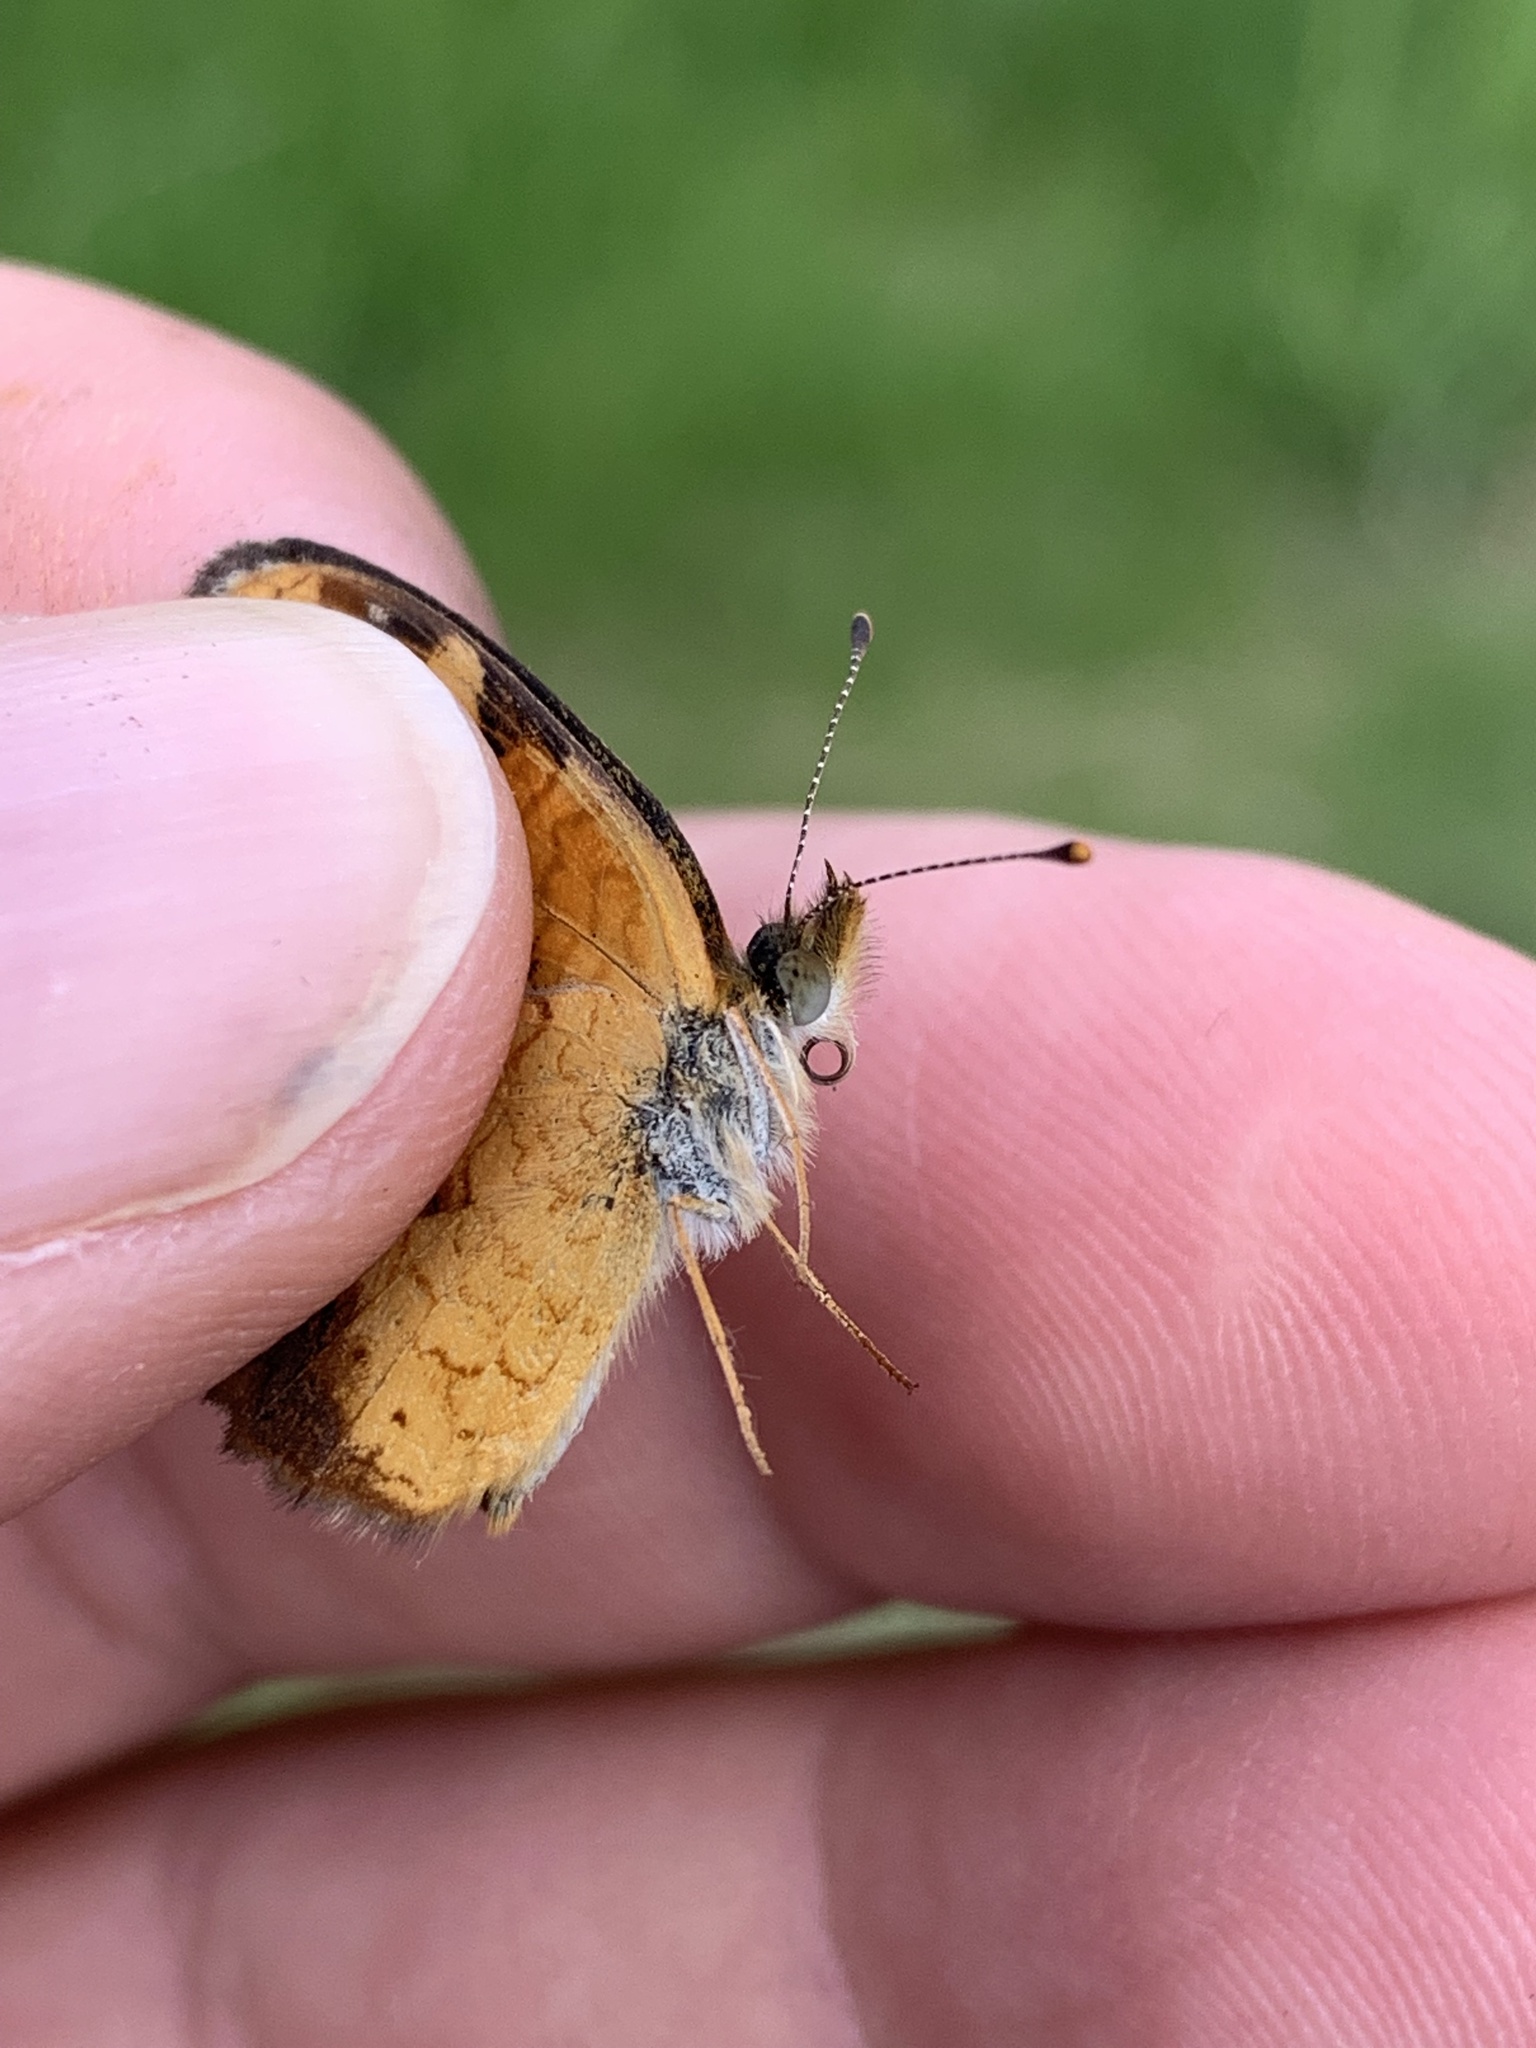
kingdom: Animalia
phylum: Arthropoda
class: Insecta
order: Lepidoptera
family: Nymphalidae
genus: Phyciodes
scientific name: Phyciodes tharos
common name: Pearl crescent
